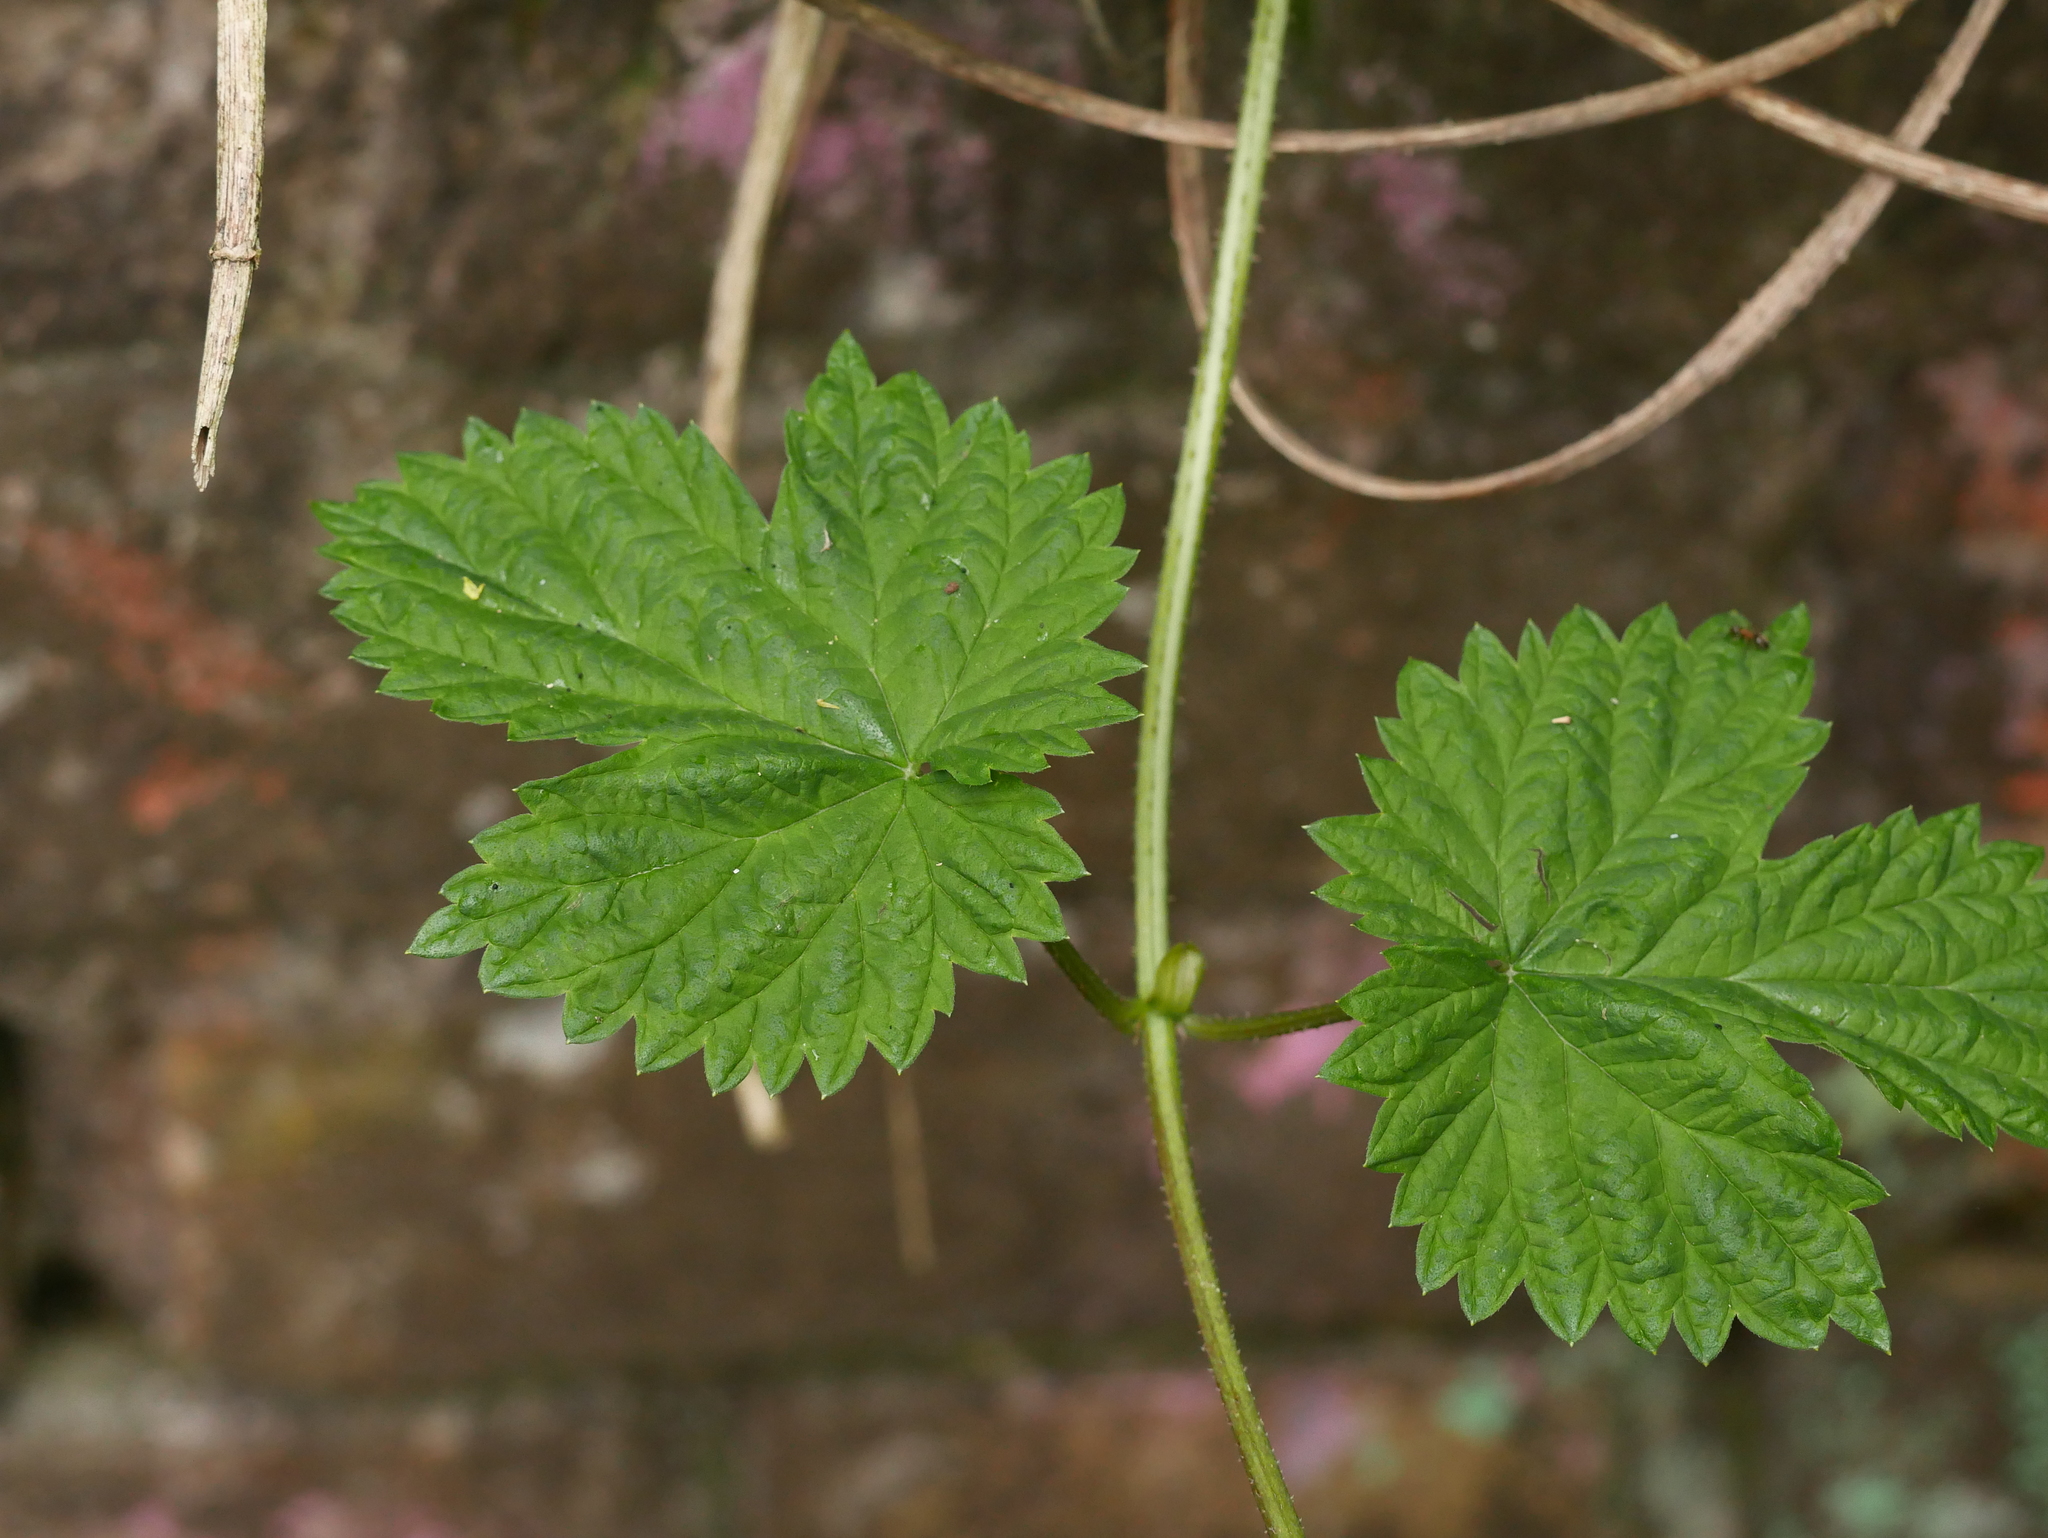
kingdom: Plantae
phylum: Tracheophyta
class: Magnoliopsida
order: Rosales
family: Cannabaceae
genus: Humulus
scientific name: Humulus lupulus
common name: Hop
